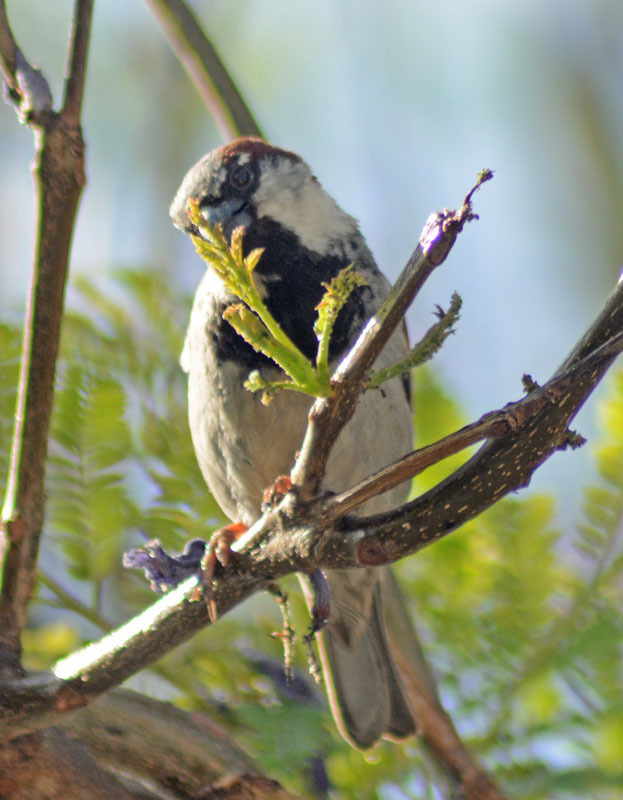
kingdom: Animalia
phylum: Chordata
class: Aves
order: Passeriformes
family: Passeridae
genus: Passer
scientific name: Passer domesticus
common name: House sparrow
